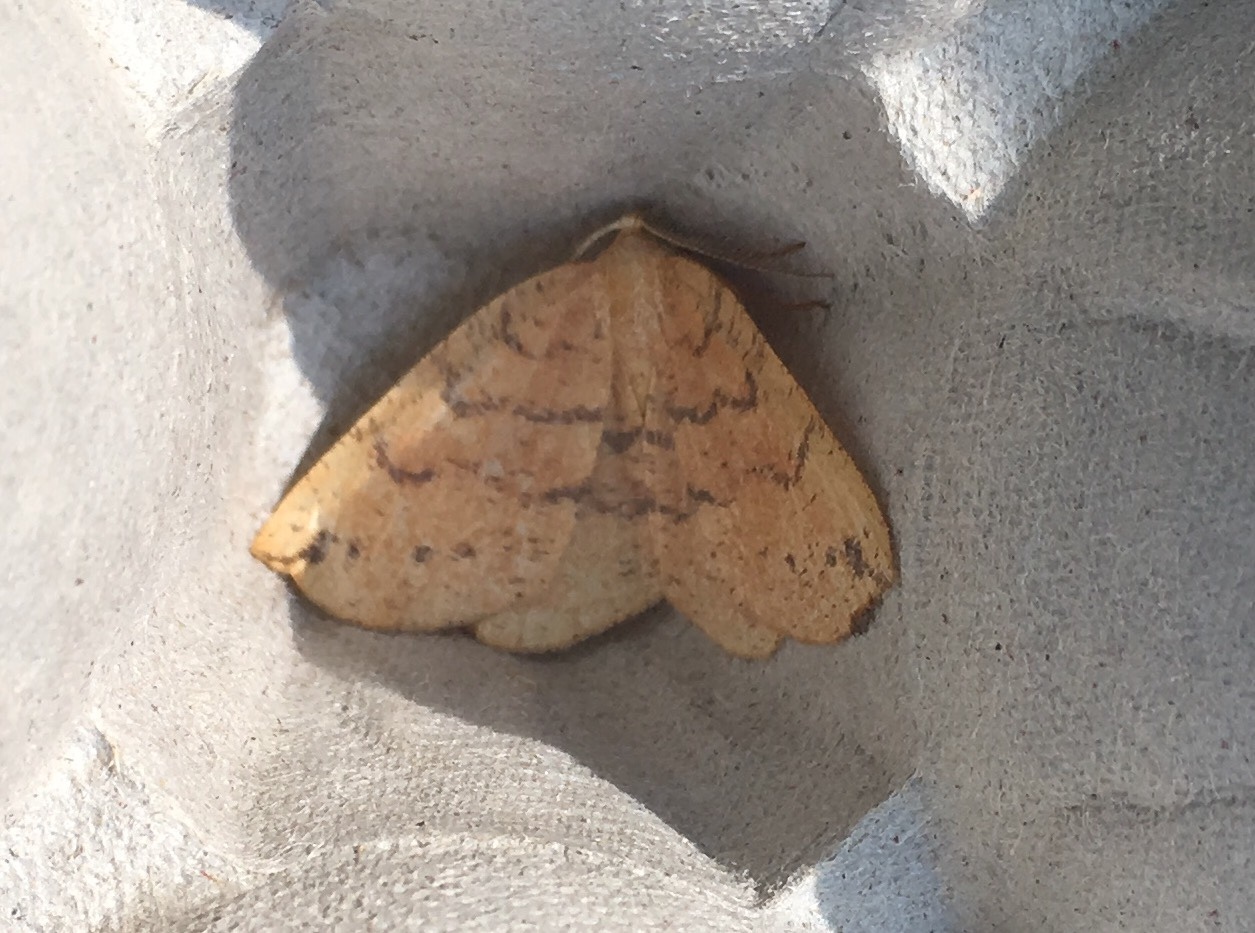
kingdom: Animalia
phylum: Arthropoda
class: Insecta
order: Lepidoptera
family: Geometridae
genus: Apodrepanulatrix
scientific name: Apodrepanulatrix liberaria
